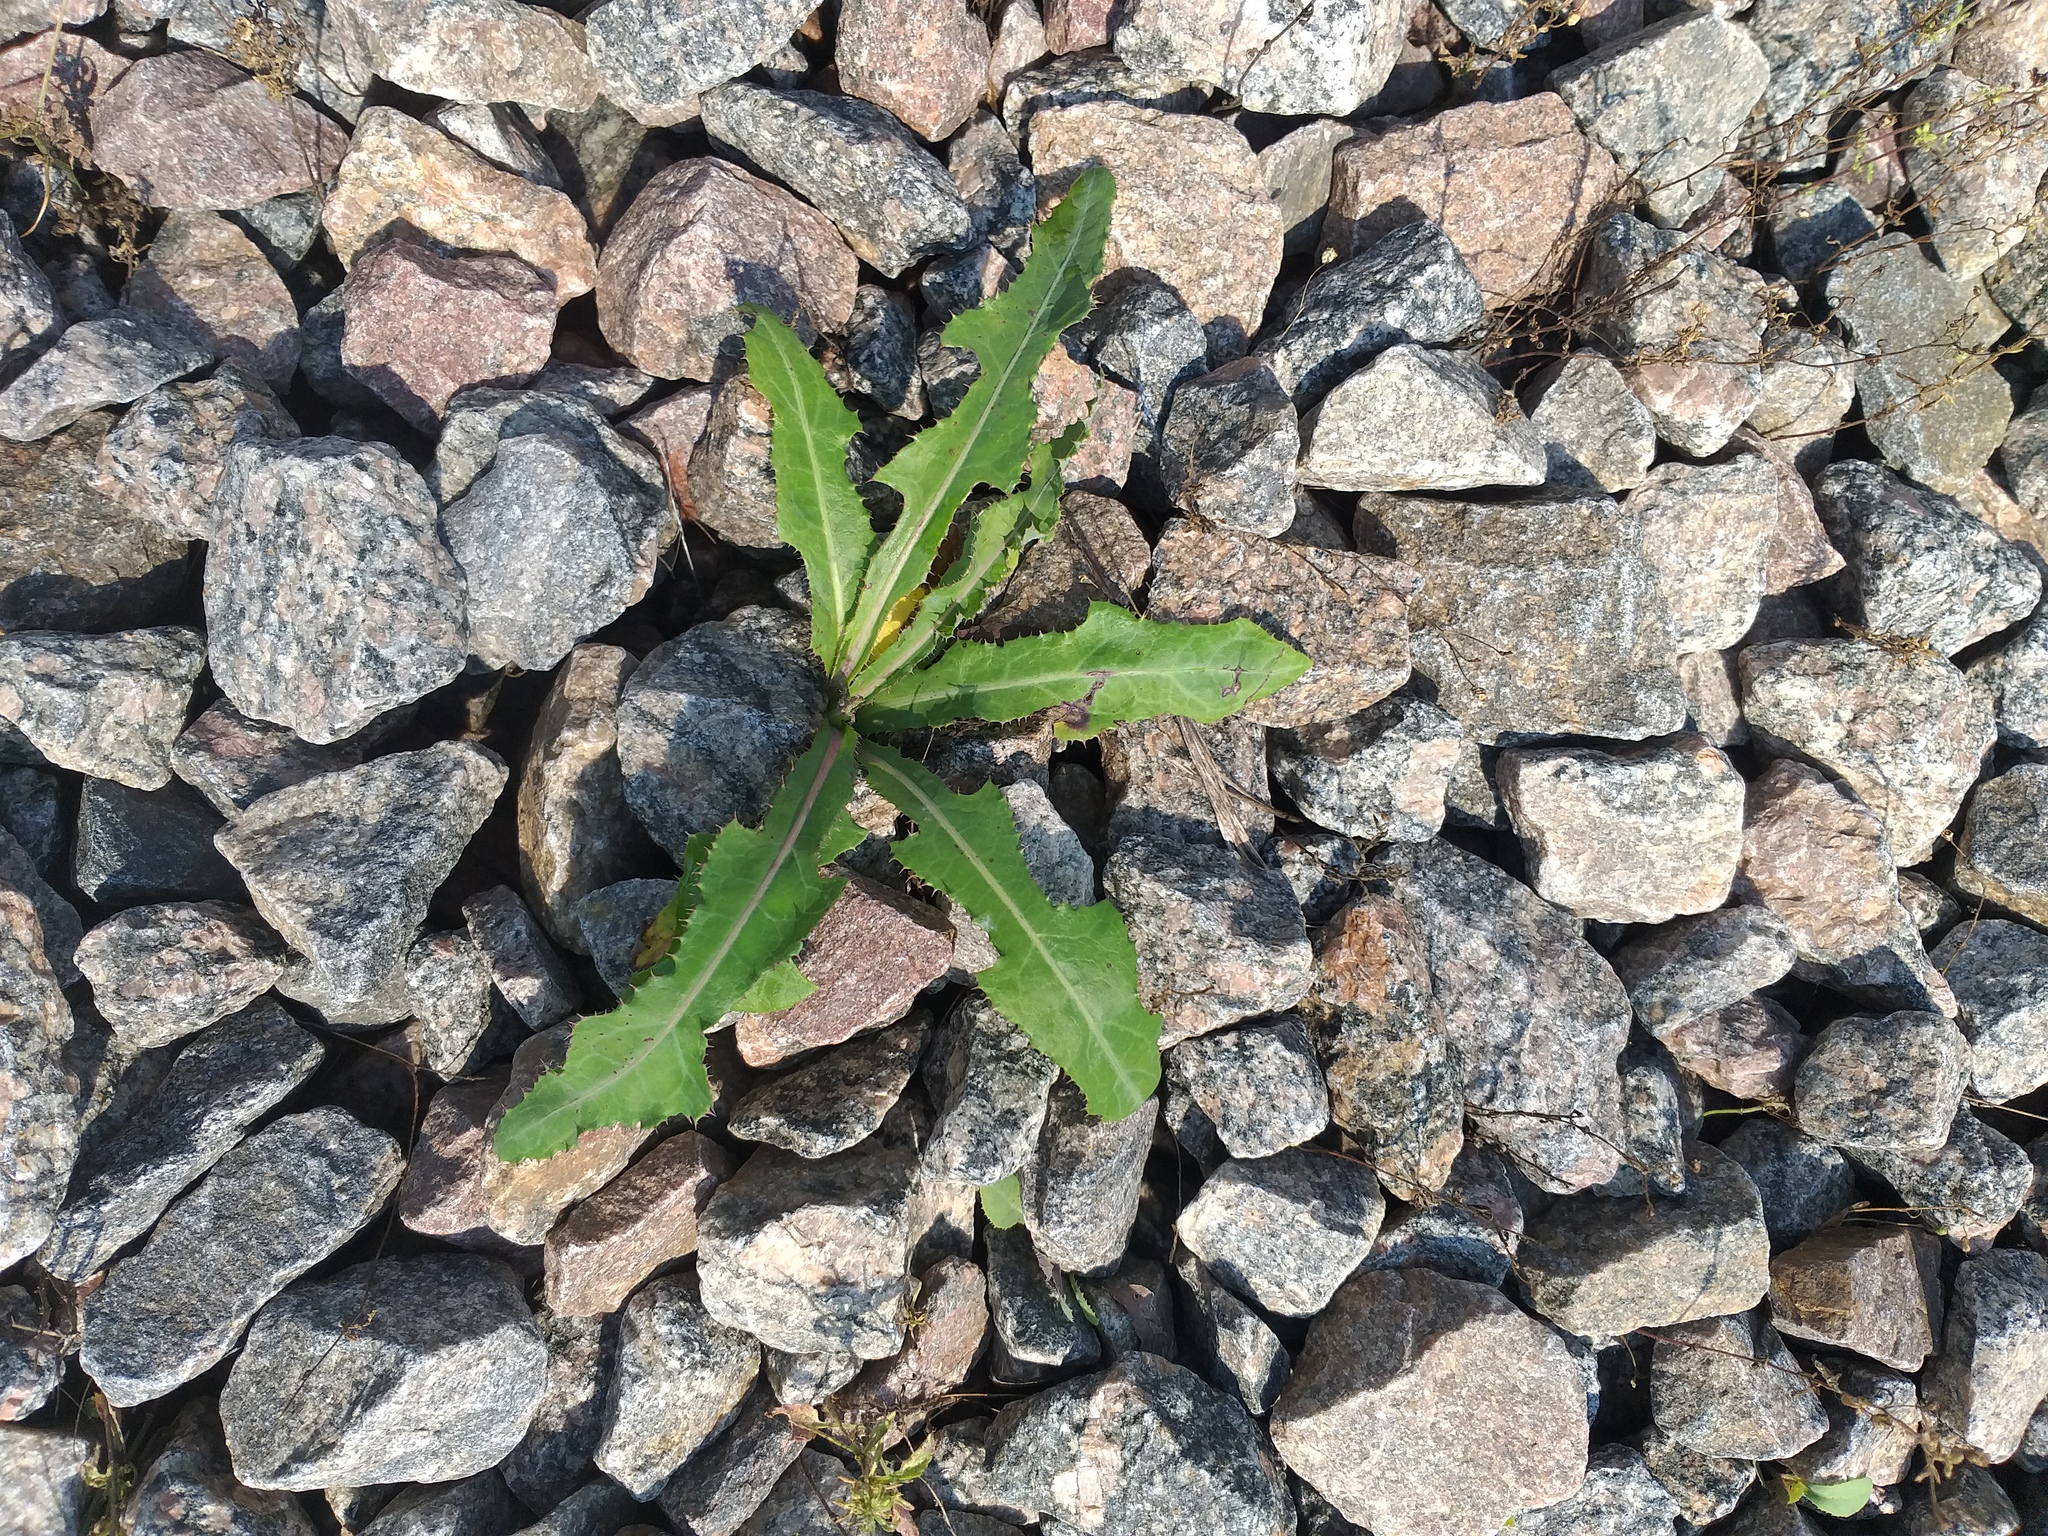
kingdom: Plantae
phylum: Tracheophyta
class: Magnoliopsida
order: Asterales
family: Asteraceae
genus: Sonchus
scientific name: Sonchus arvensis
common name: Perennial sow-thistle
